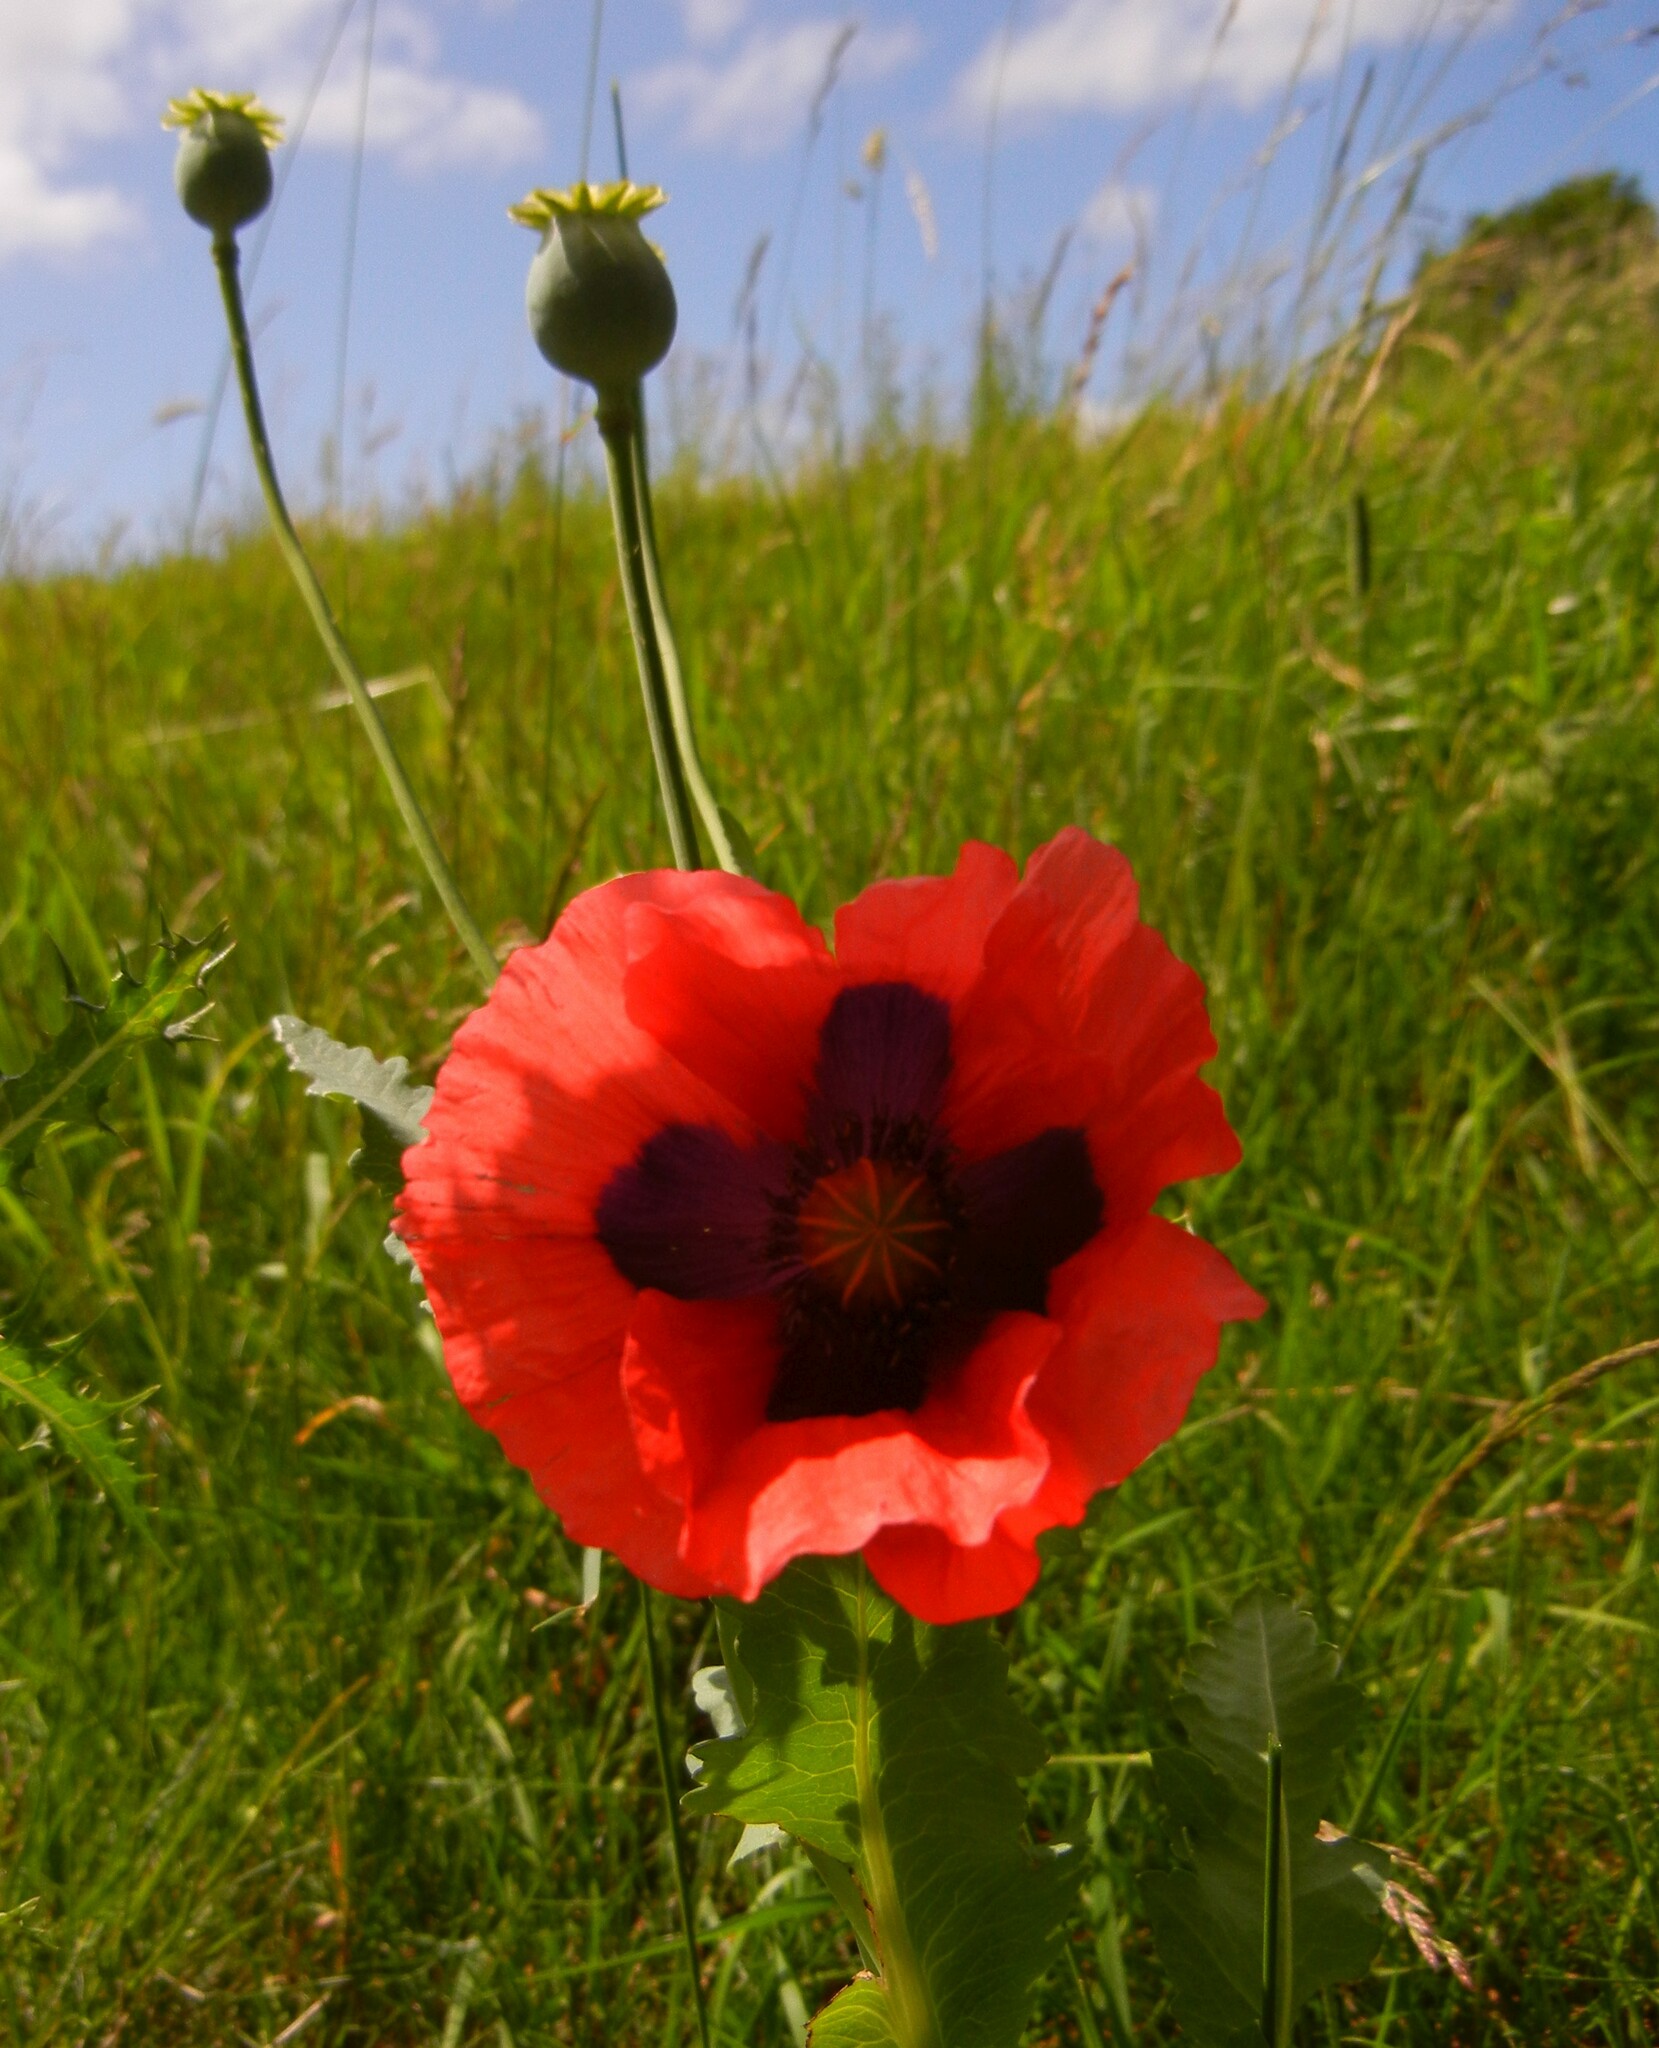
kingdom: Plantae
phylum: Tracheophyta
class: Magnoliopsida
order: Ranunculales
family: Papaveraceae
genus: Papaver
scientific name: Papaver somniferum
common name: Opium poppy
